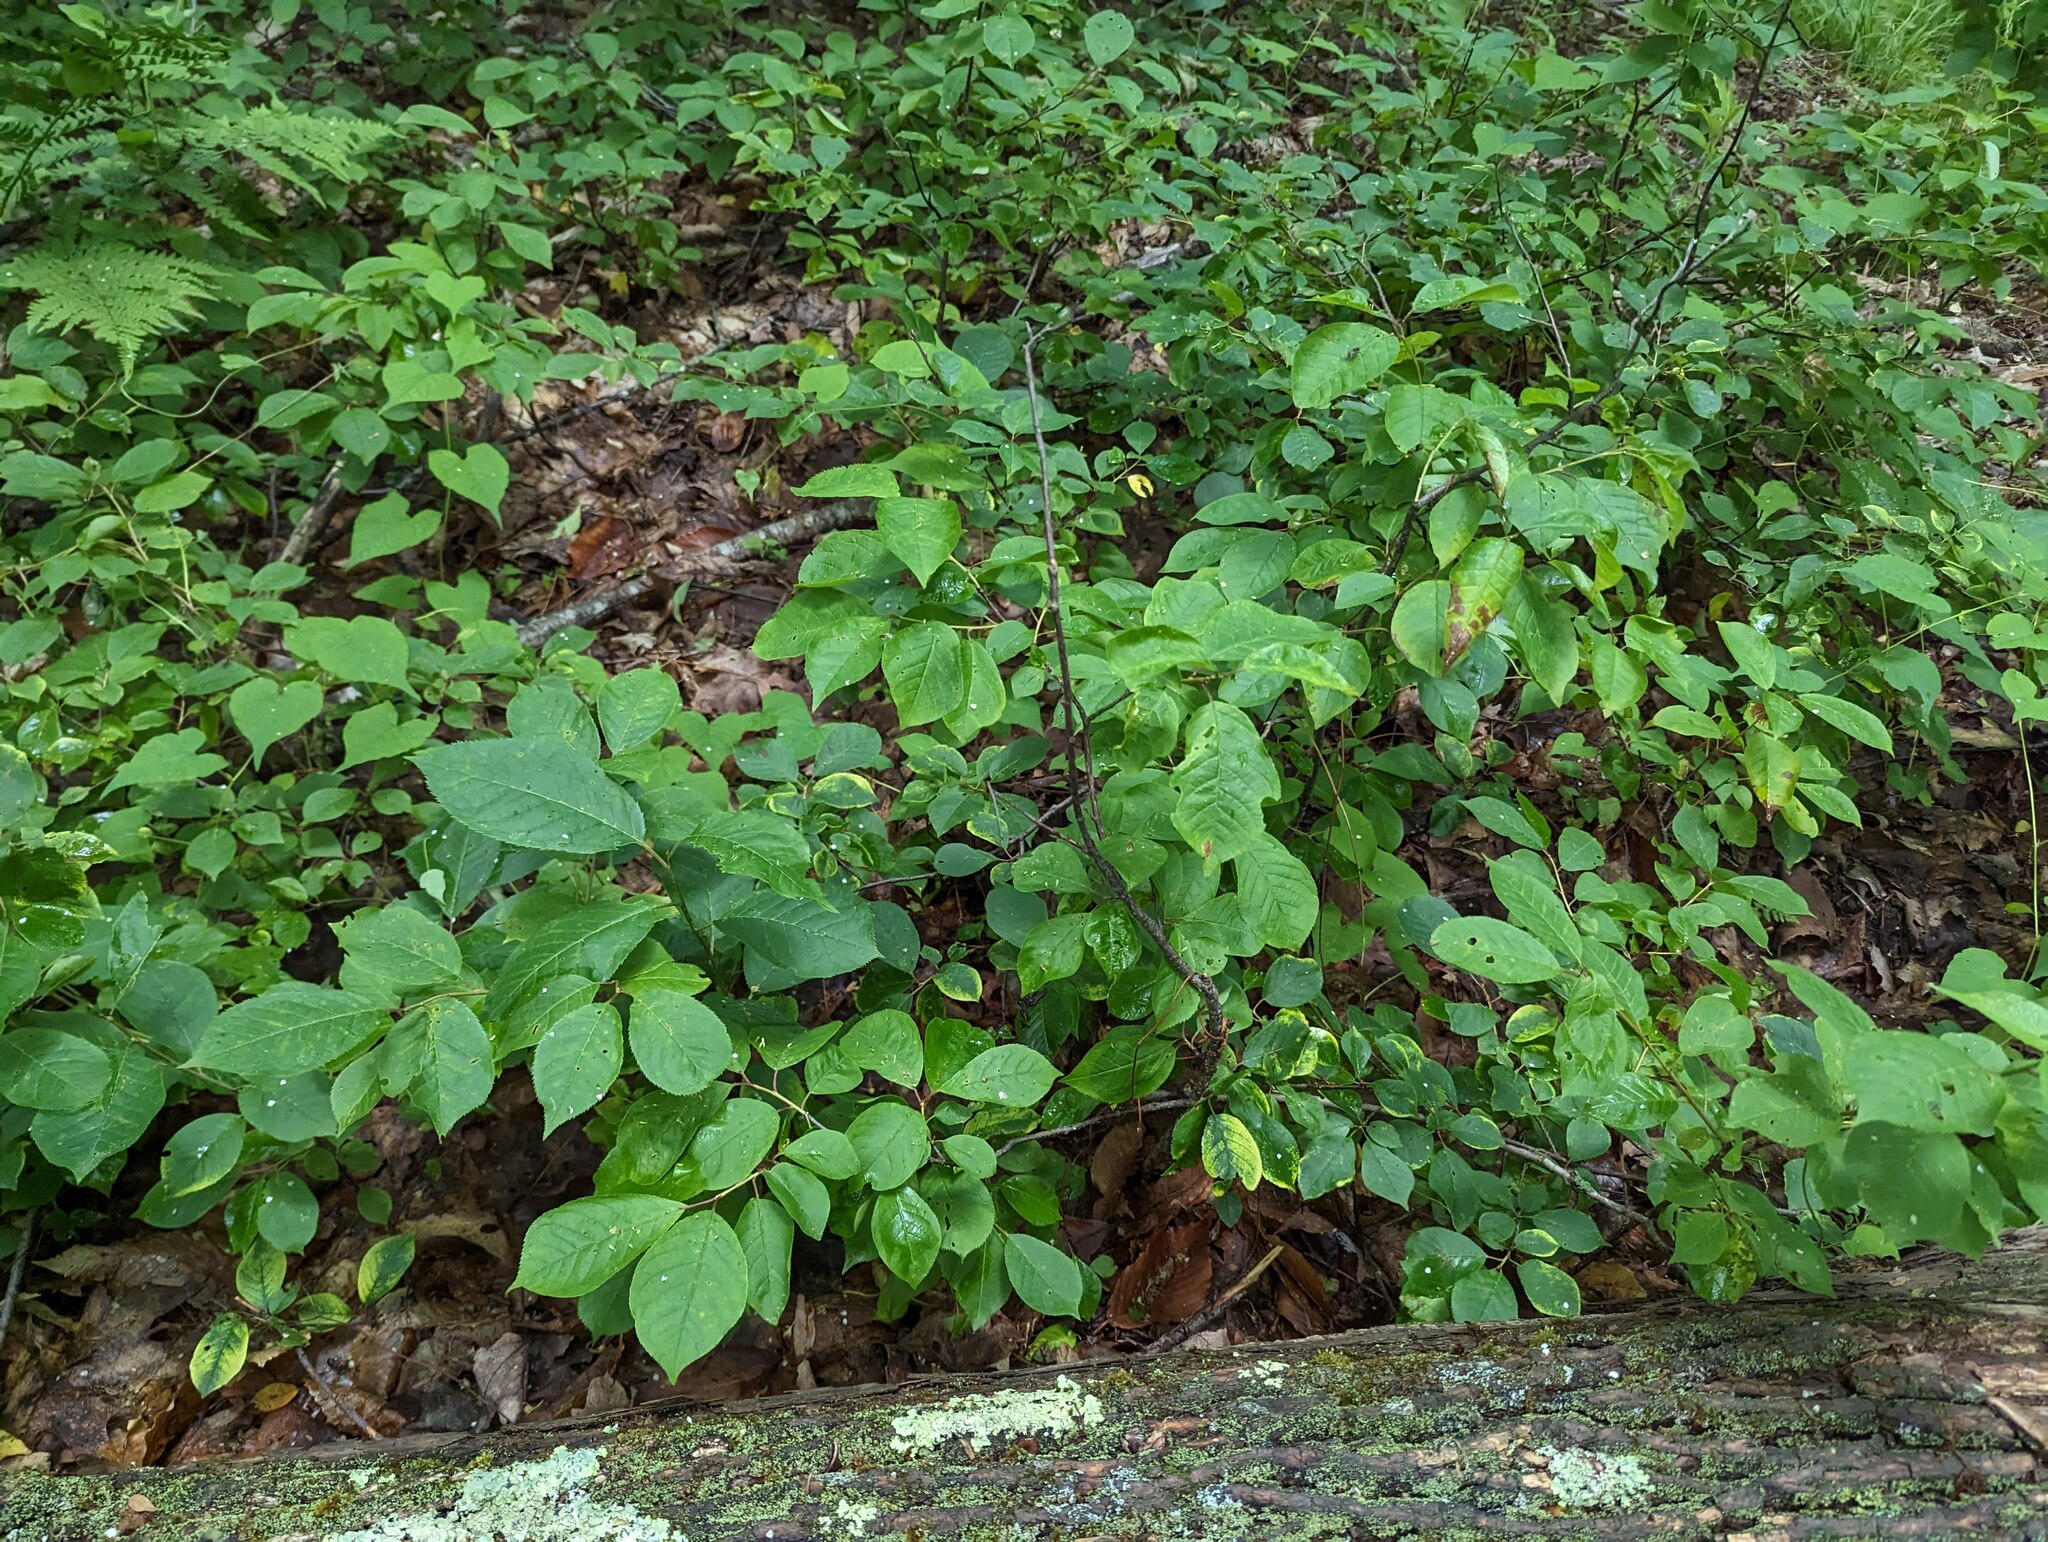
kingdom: Plantae
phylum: Tracheophyta
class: Magnoliopsida
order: Rosales
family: Rosaceae
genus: Prunus
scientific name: Prunus virginiana
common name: Chokecherry
